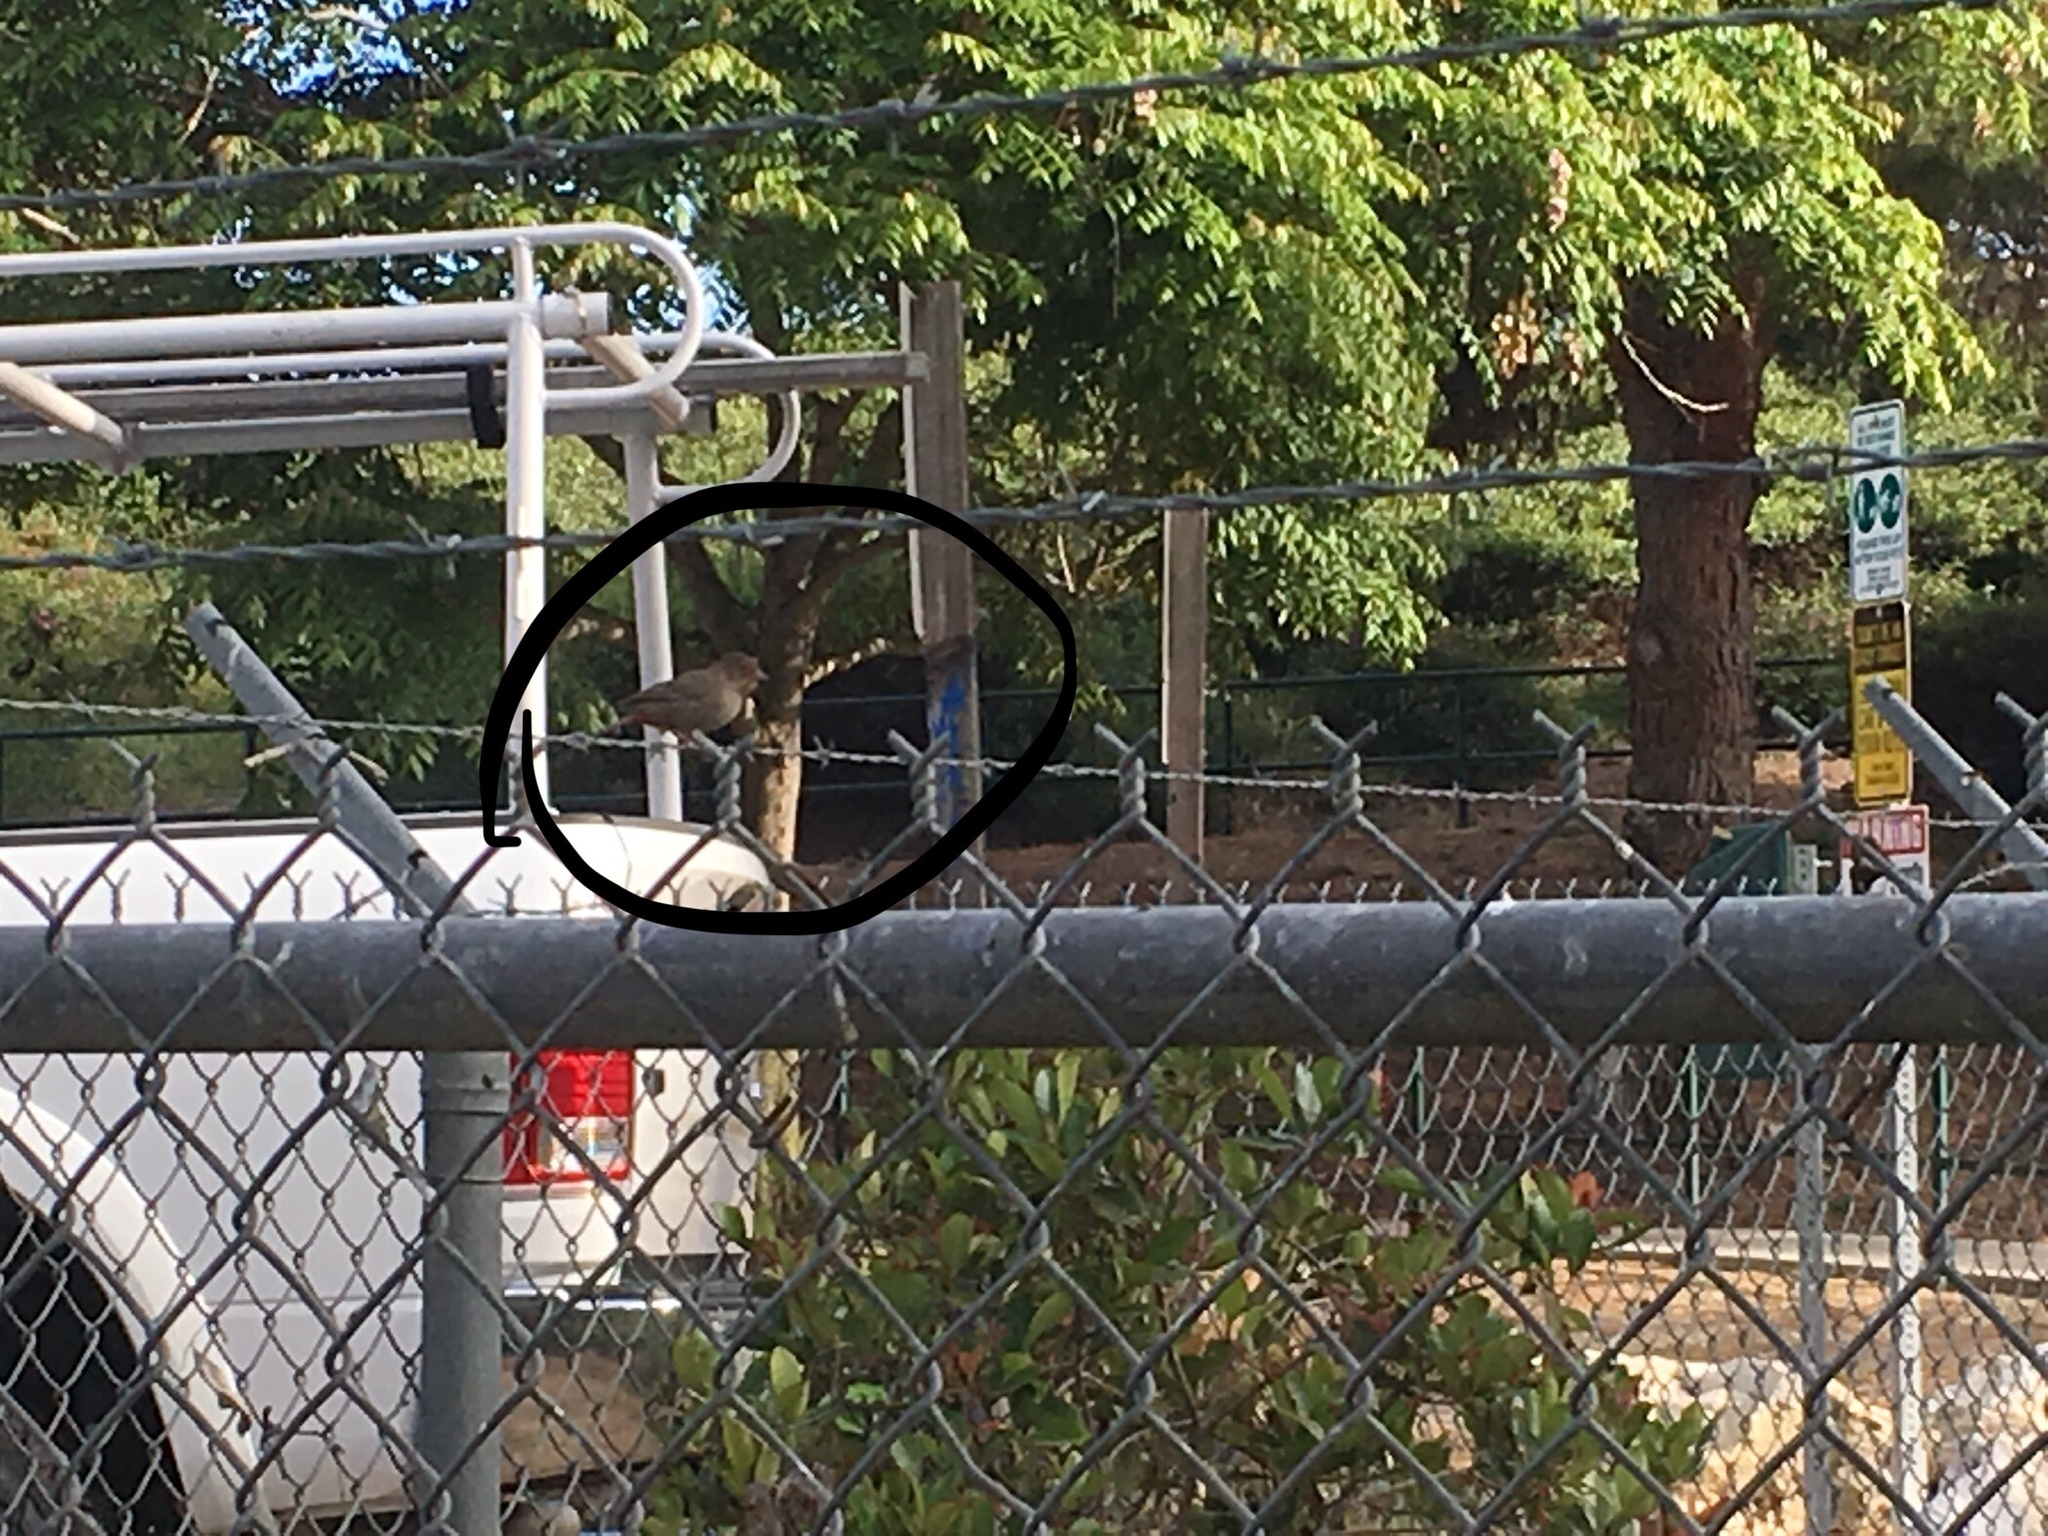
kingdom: Animalia
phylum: Chordata
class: Aves
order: Passeriformes
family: Passerellidae
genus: Melozone
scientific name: Melozone crissalis
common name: California towhee
